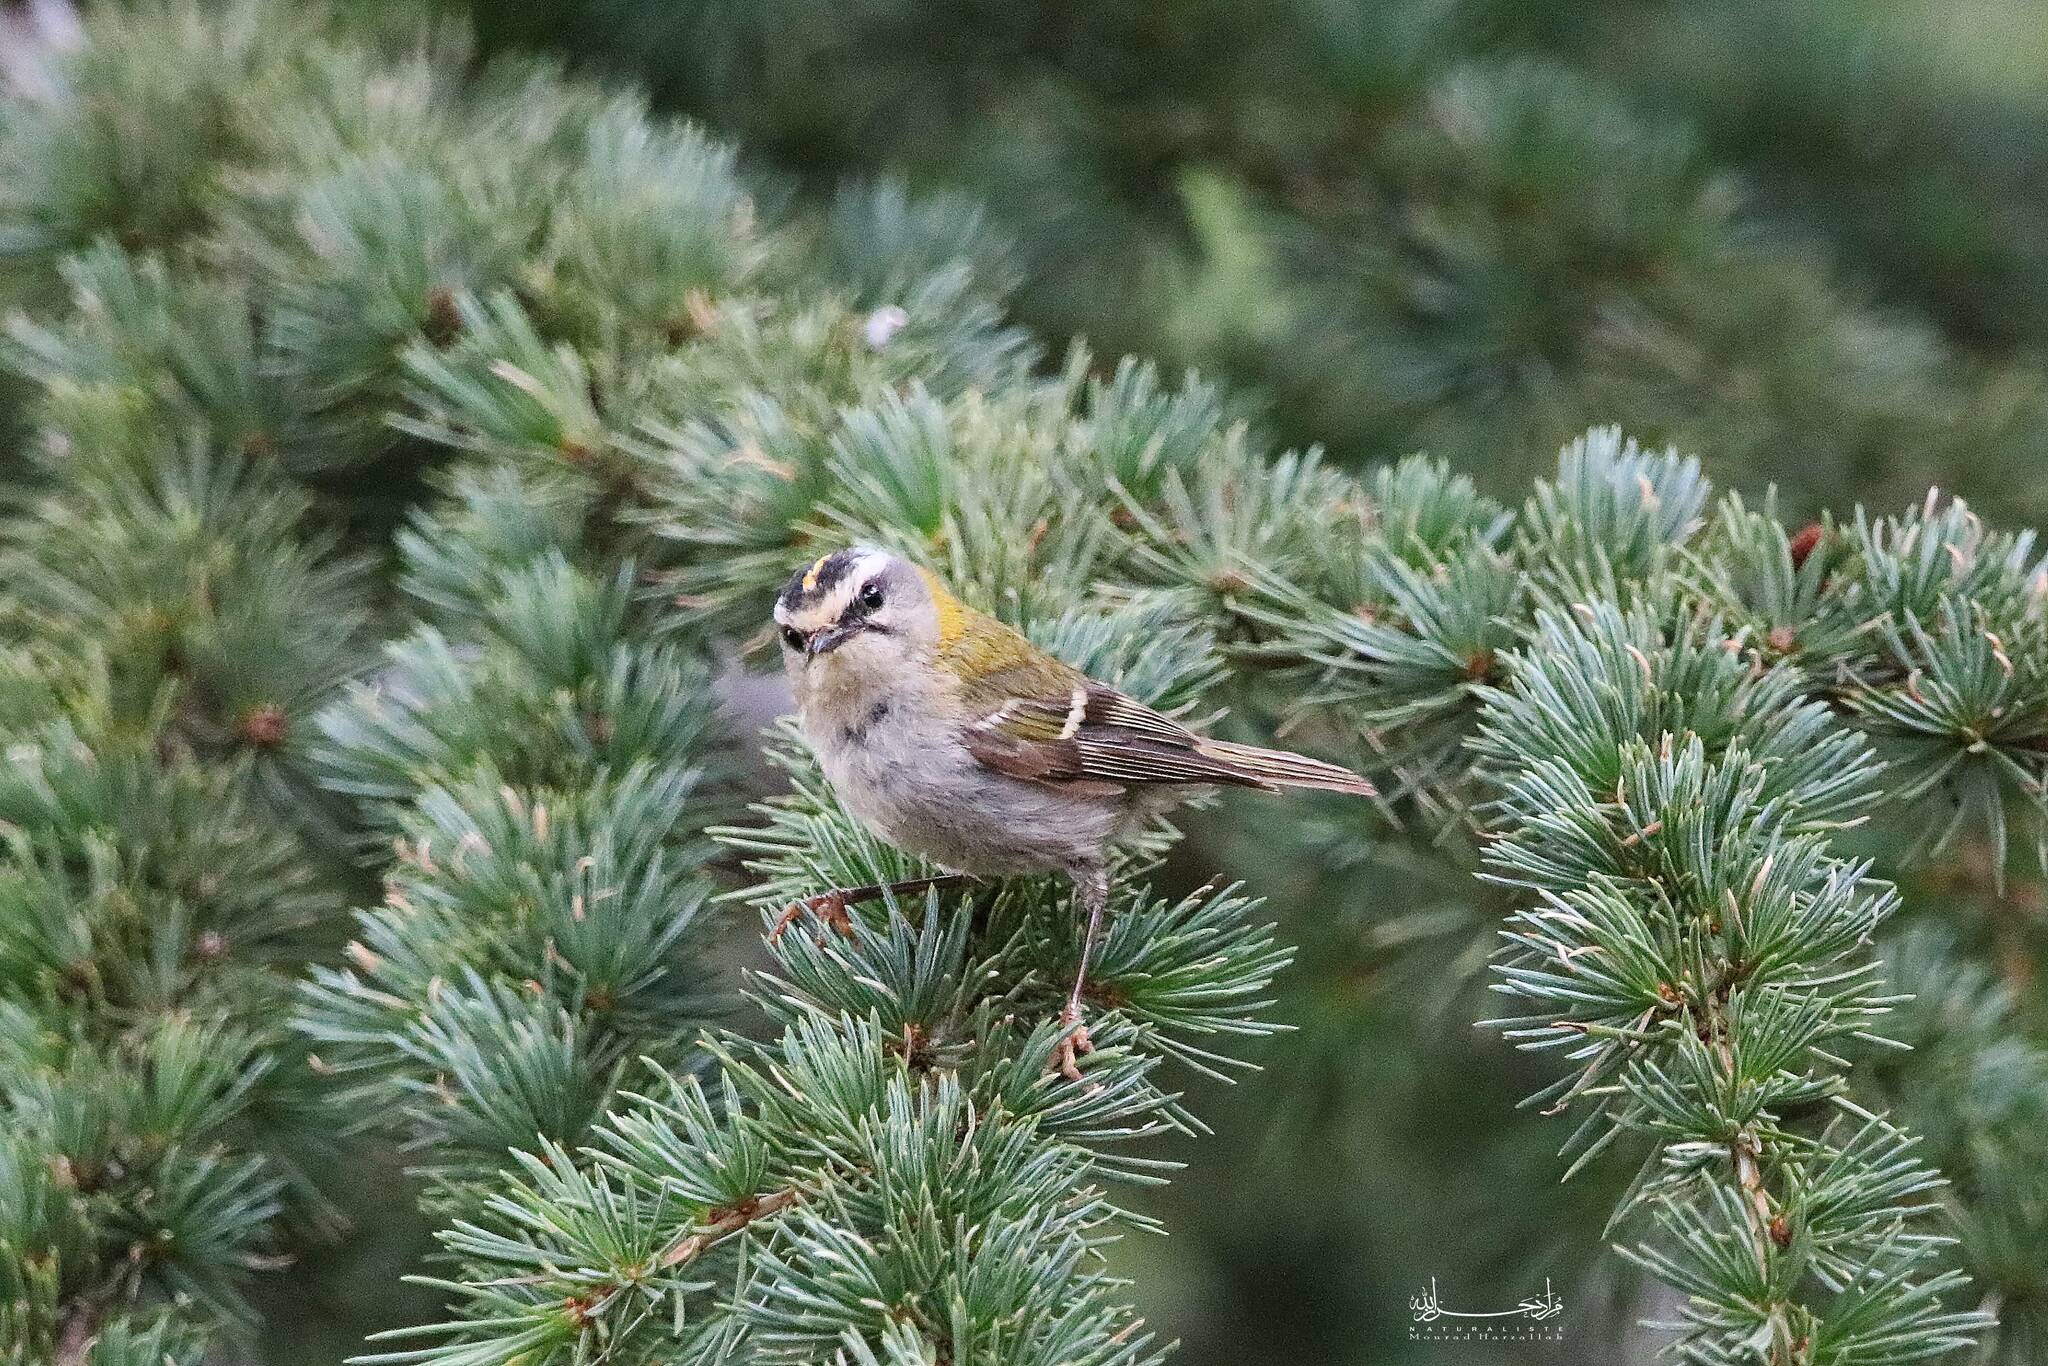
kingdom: Animalia
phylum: Chordata
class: Aves
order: Passeriformes
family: Regulidae
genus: Regulus
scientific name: Regulus ignicapilla
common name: Firecrest
